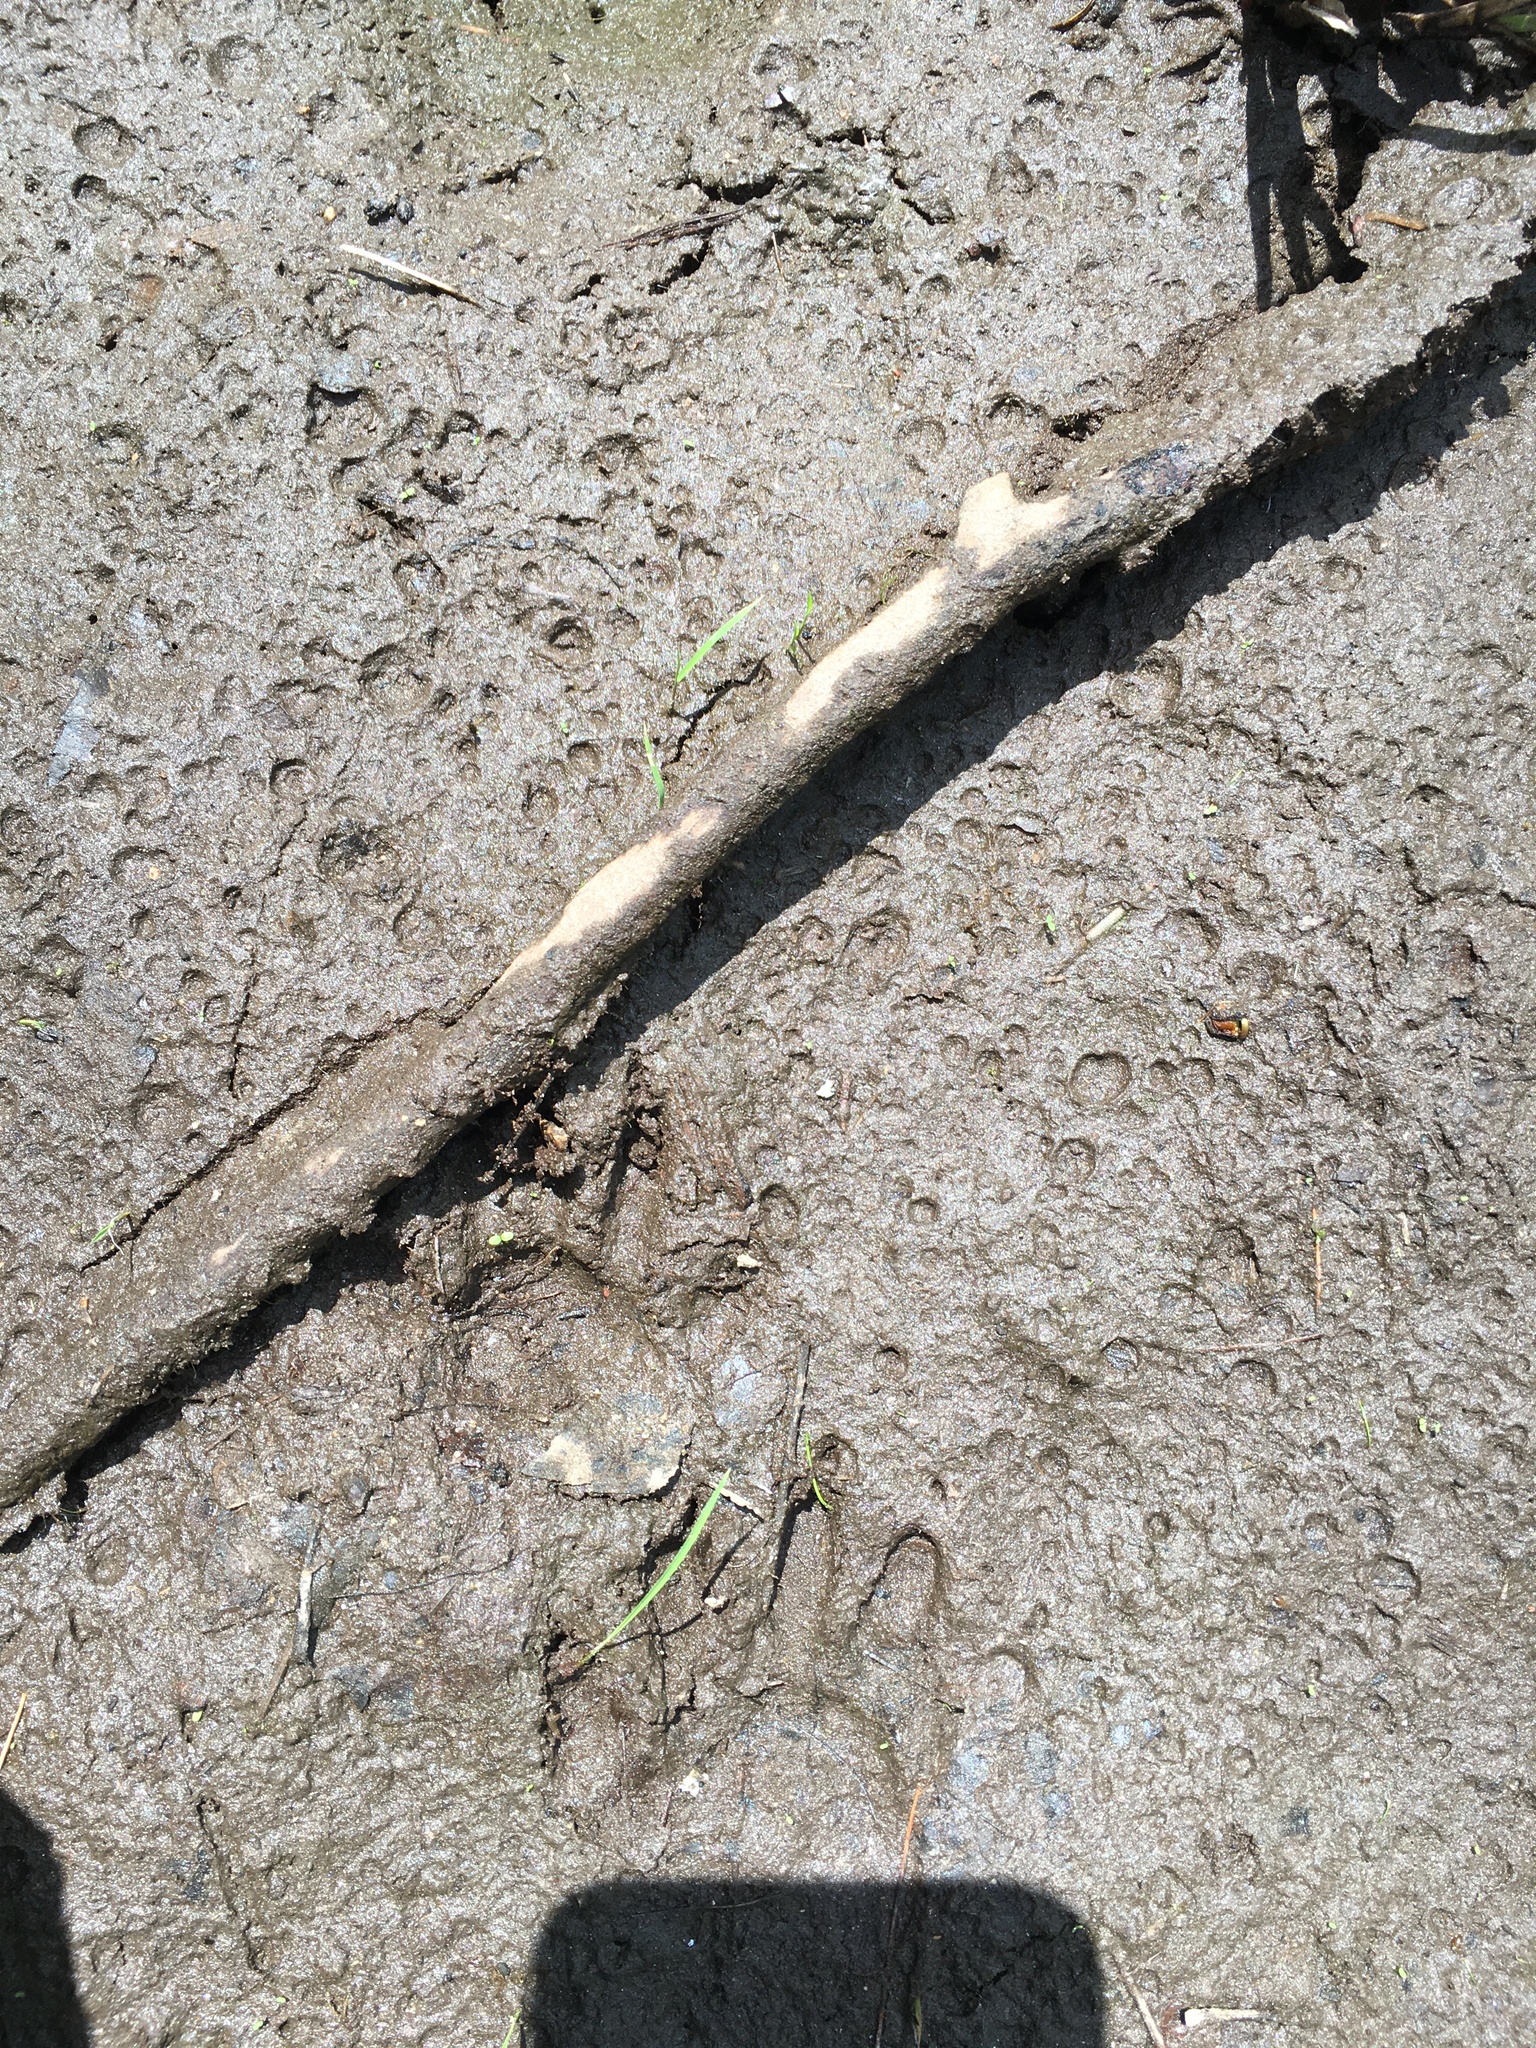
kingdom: Animalia
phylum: Chordata
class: Mammalia
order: Carnivora
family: Procyonidae
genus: Procyon
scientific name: Procyon lotor
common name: Raccoon
